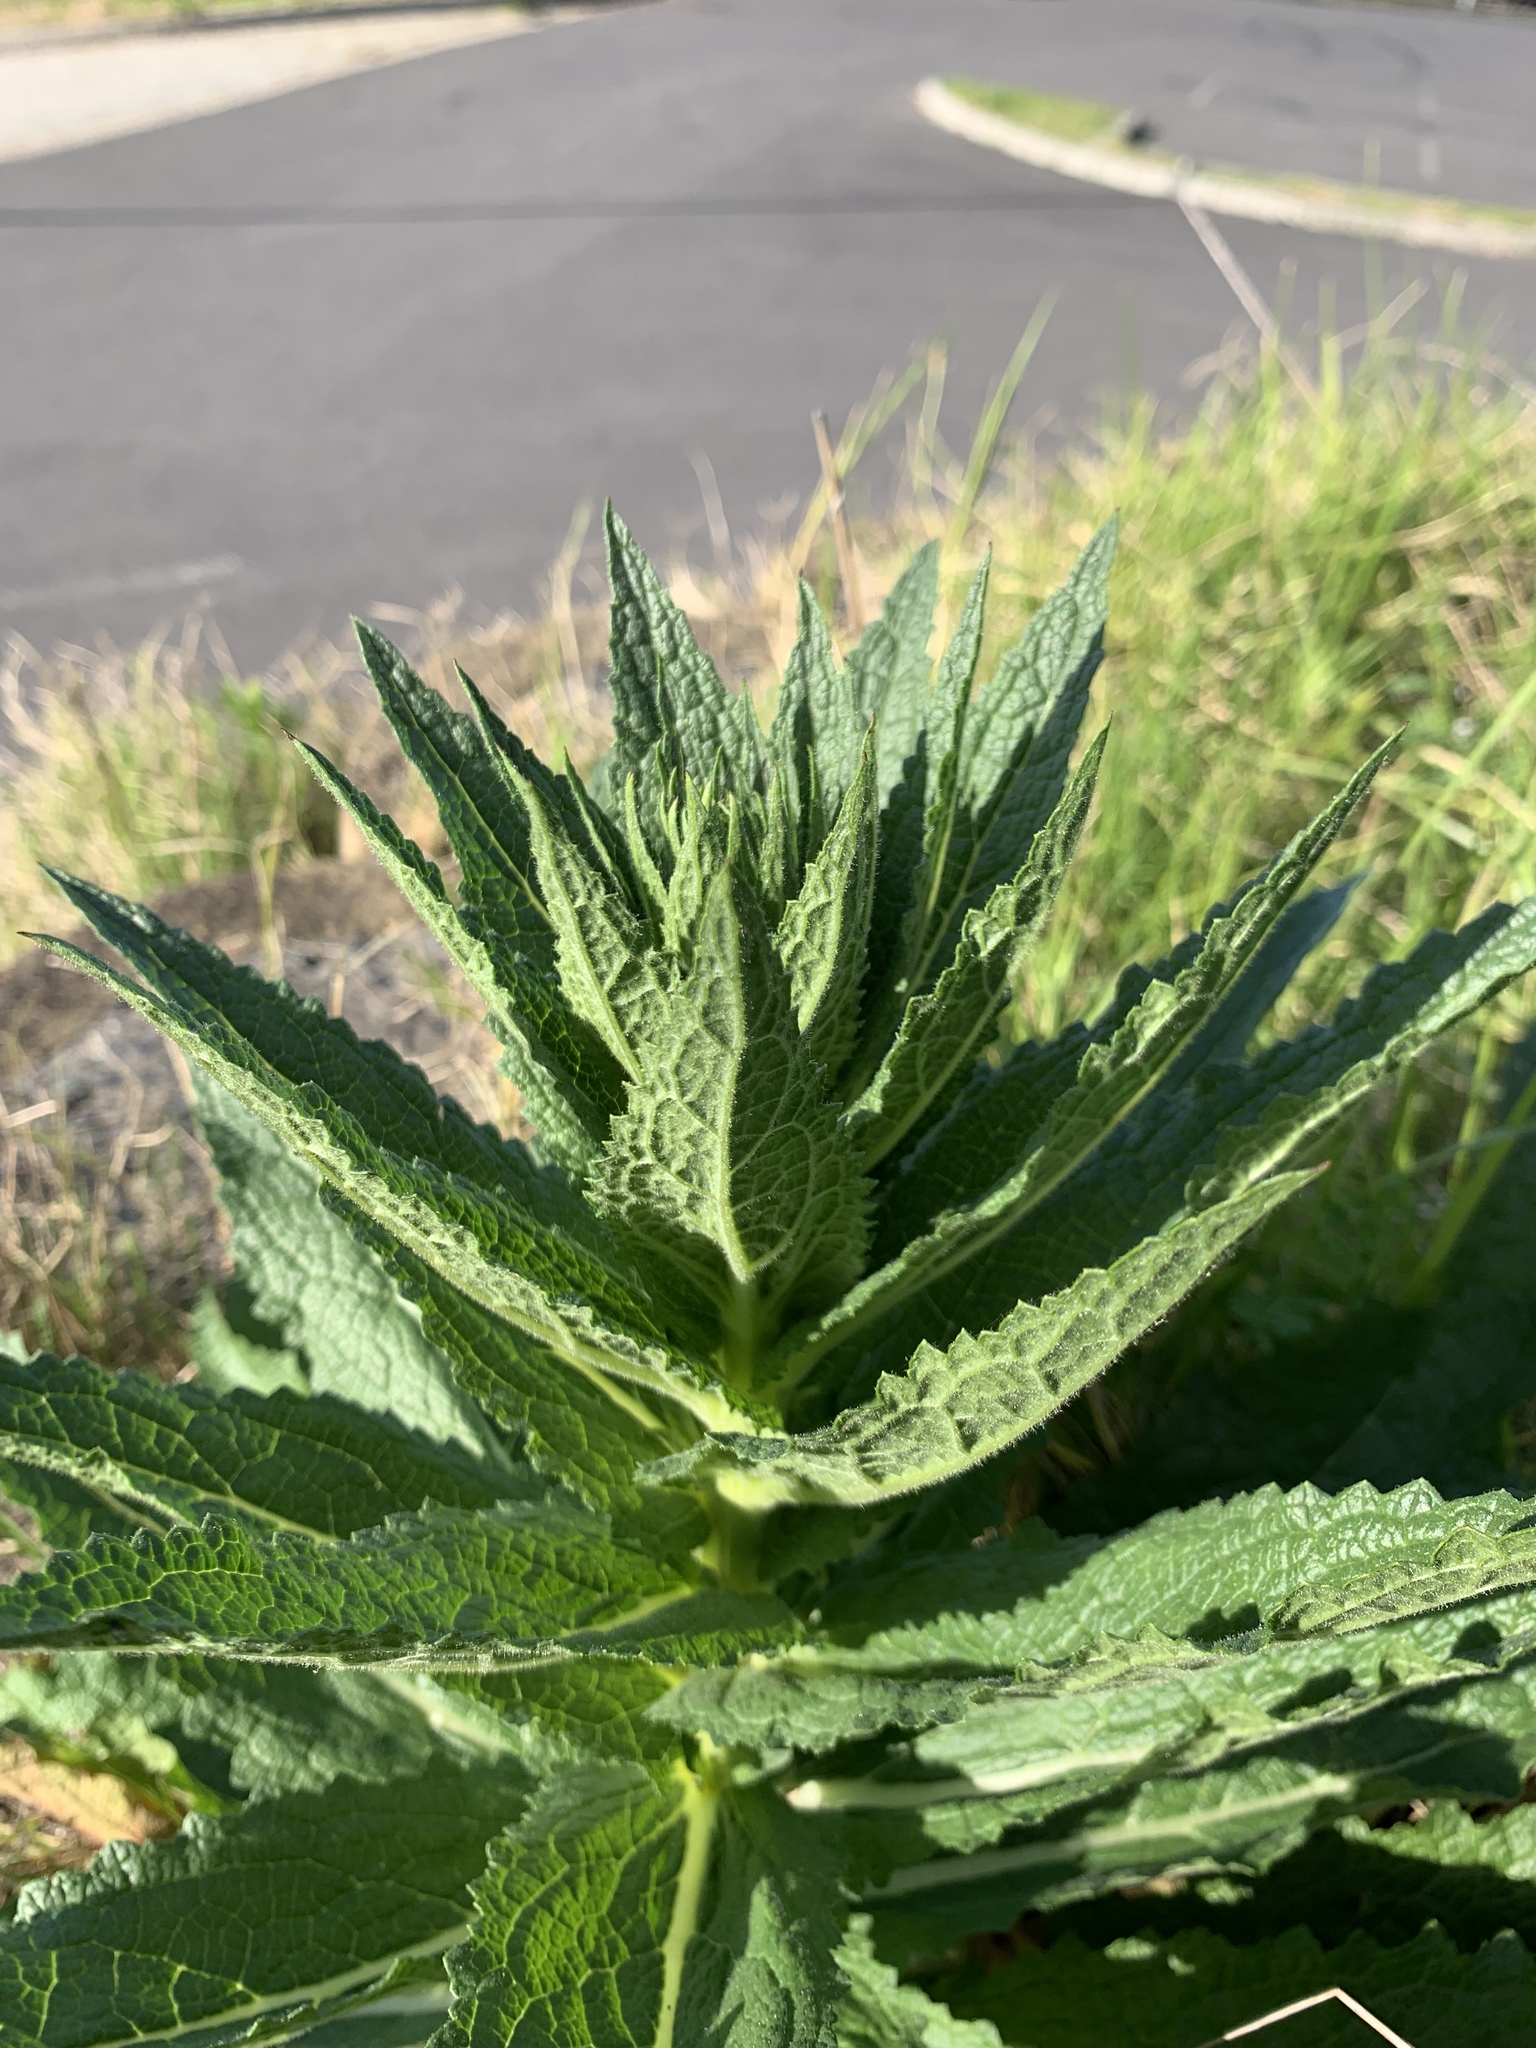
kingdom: Plantae
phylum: Tracheophyta
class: Magnoliopsida
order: Lamiales
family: Scrophulariaceae
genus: Verbascum
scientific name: Verbascum virgatum
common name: Twiggy mullein
